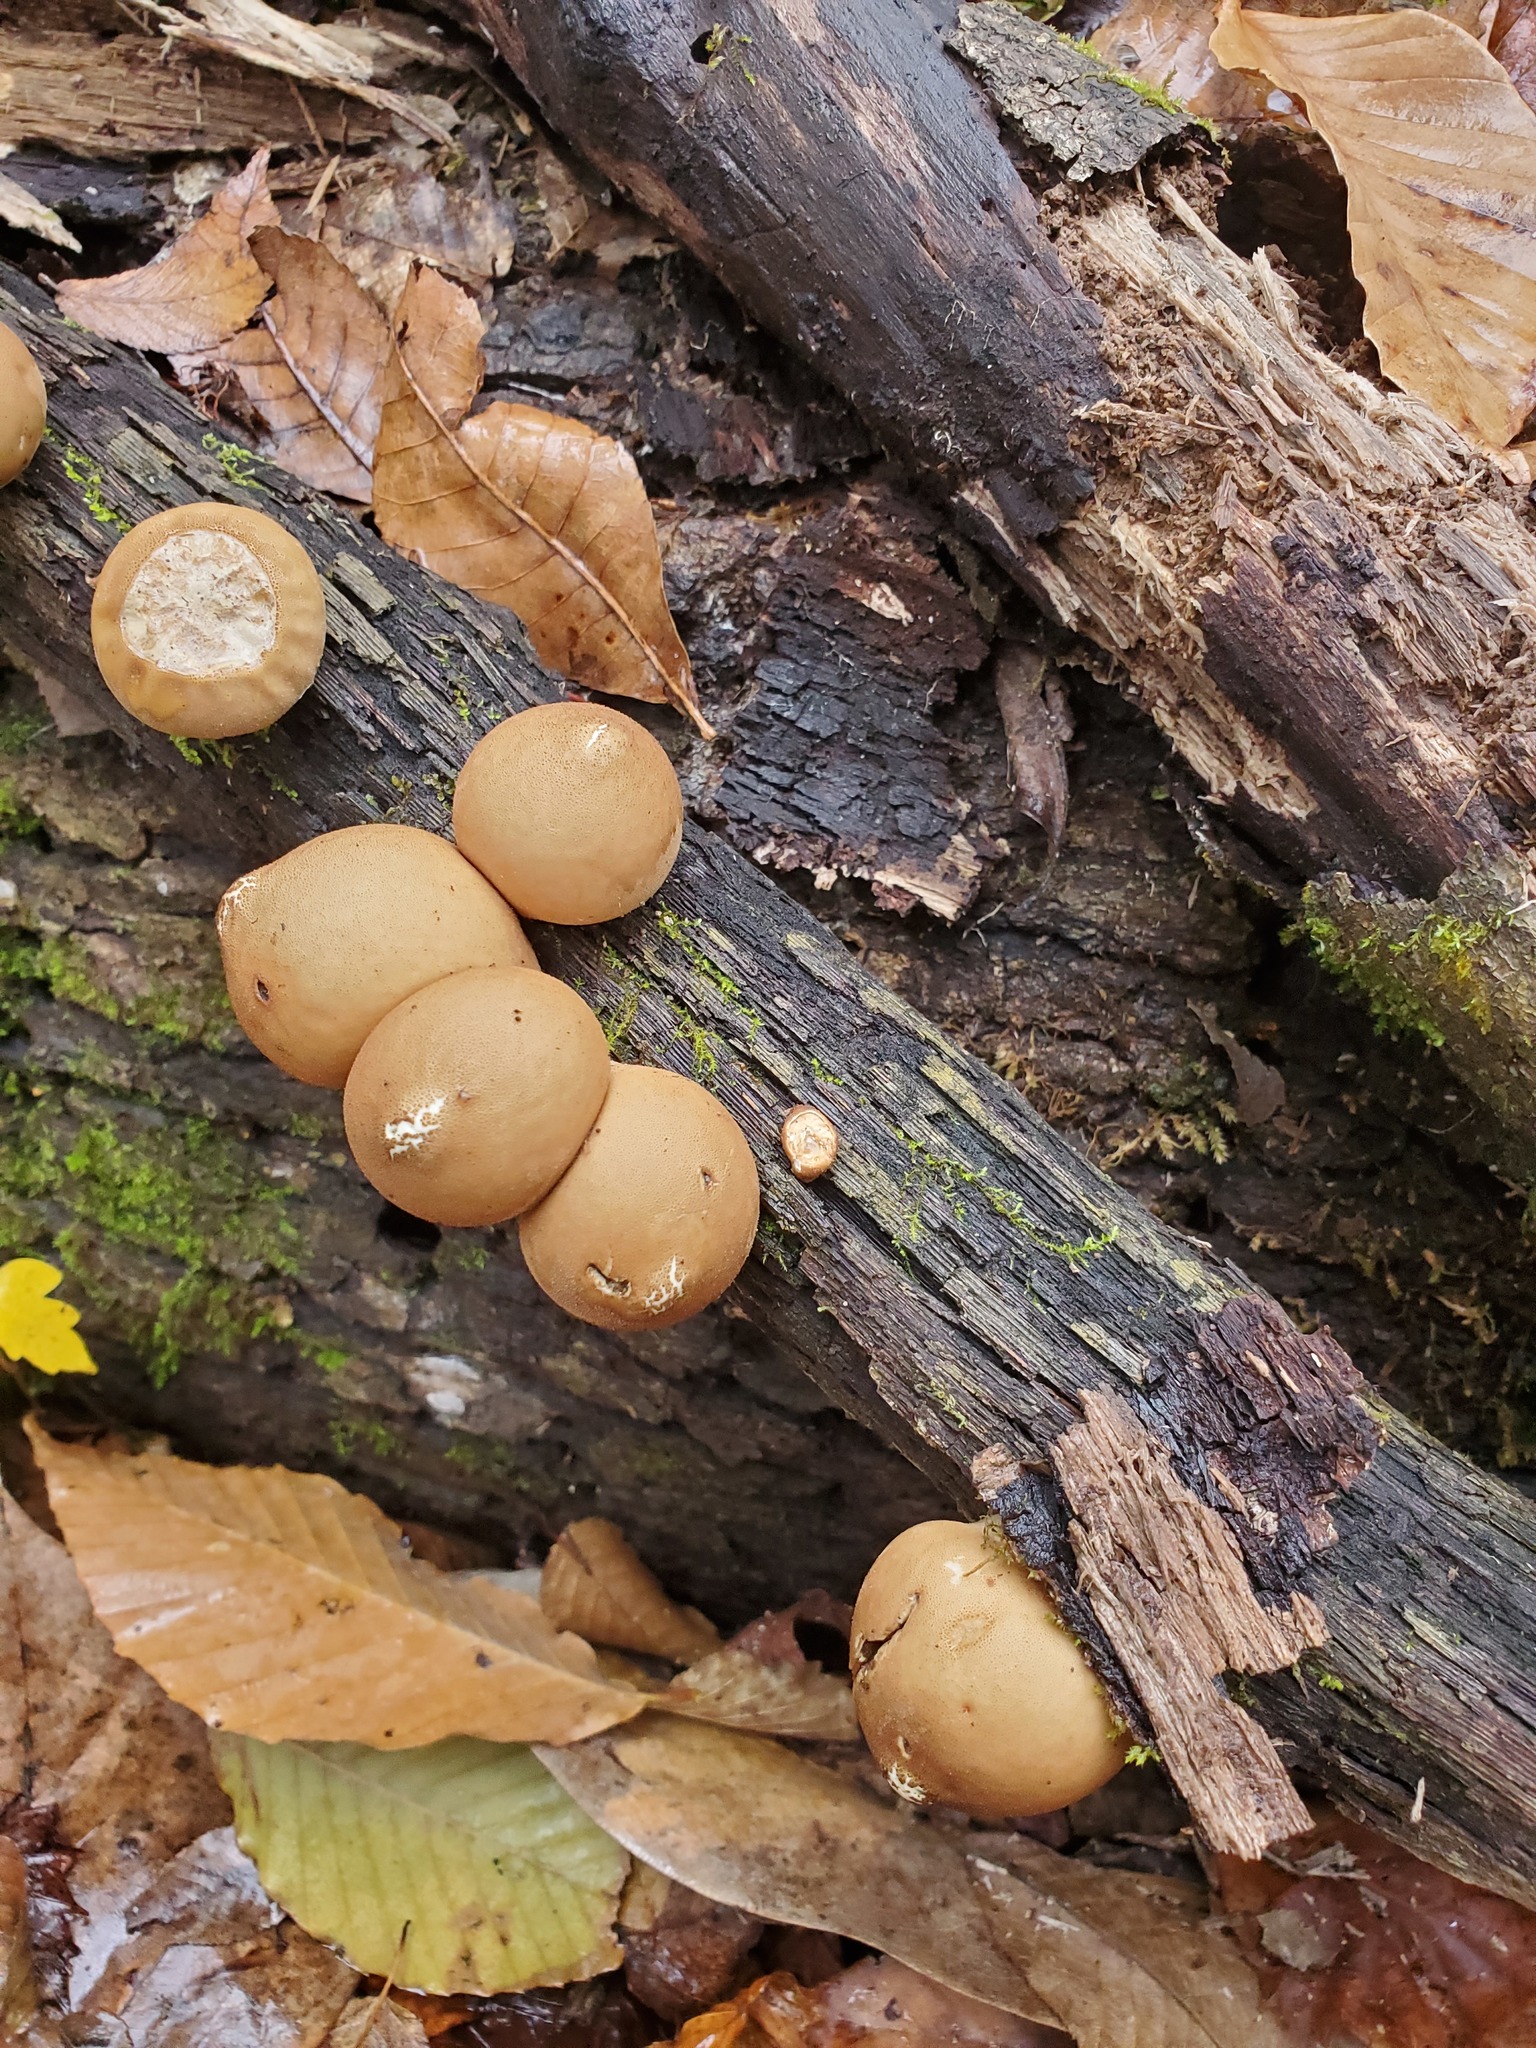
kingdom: Fungi
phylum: Basidiomycota
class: Agaricomycetes
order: Agaricales
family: Lycoperdaceae
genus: Apioperdon
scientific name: Apioperdon pyriforme
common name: Pear-shaped puffball
